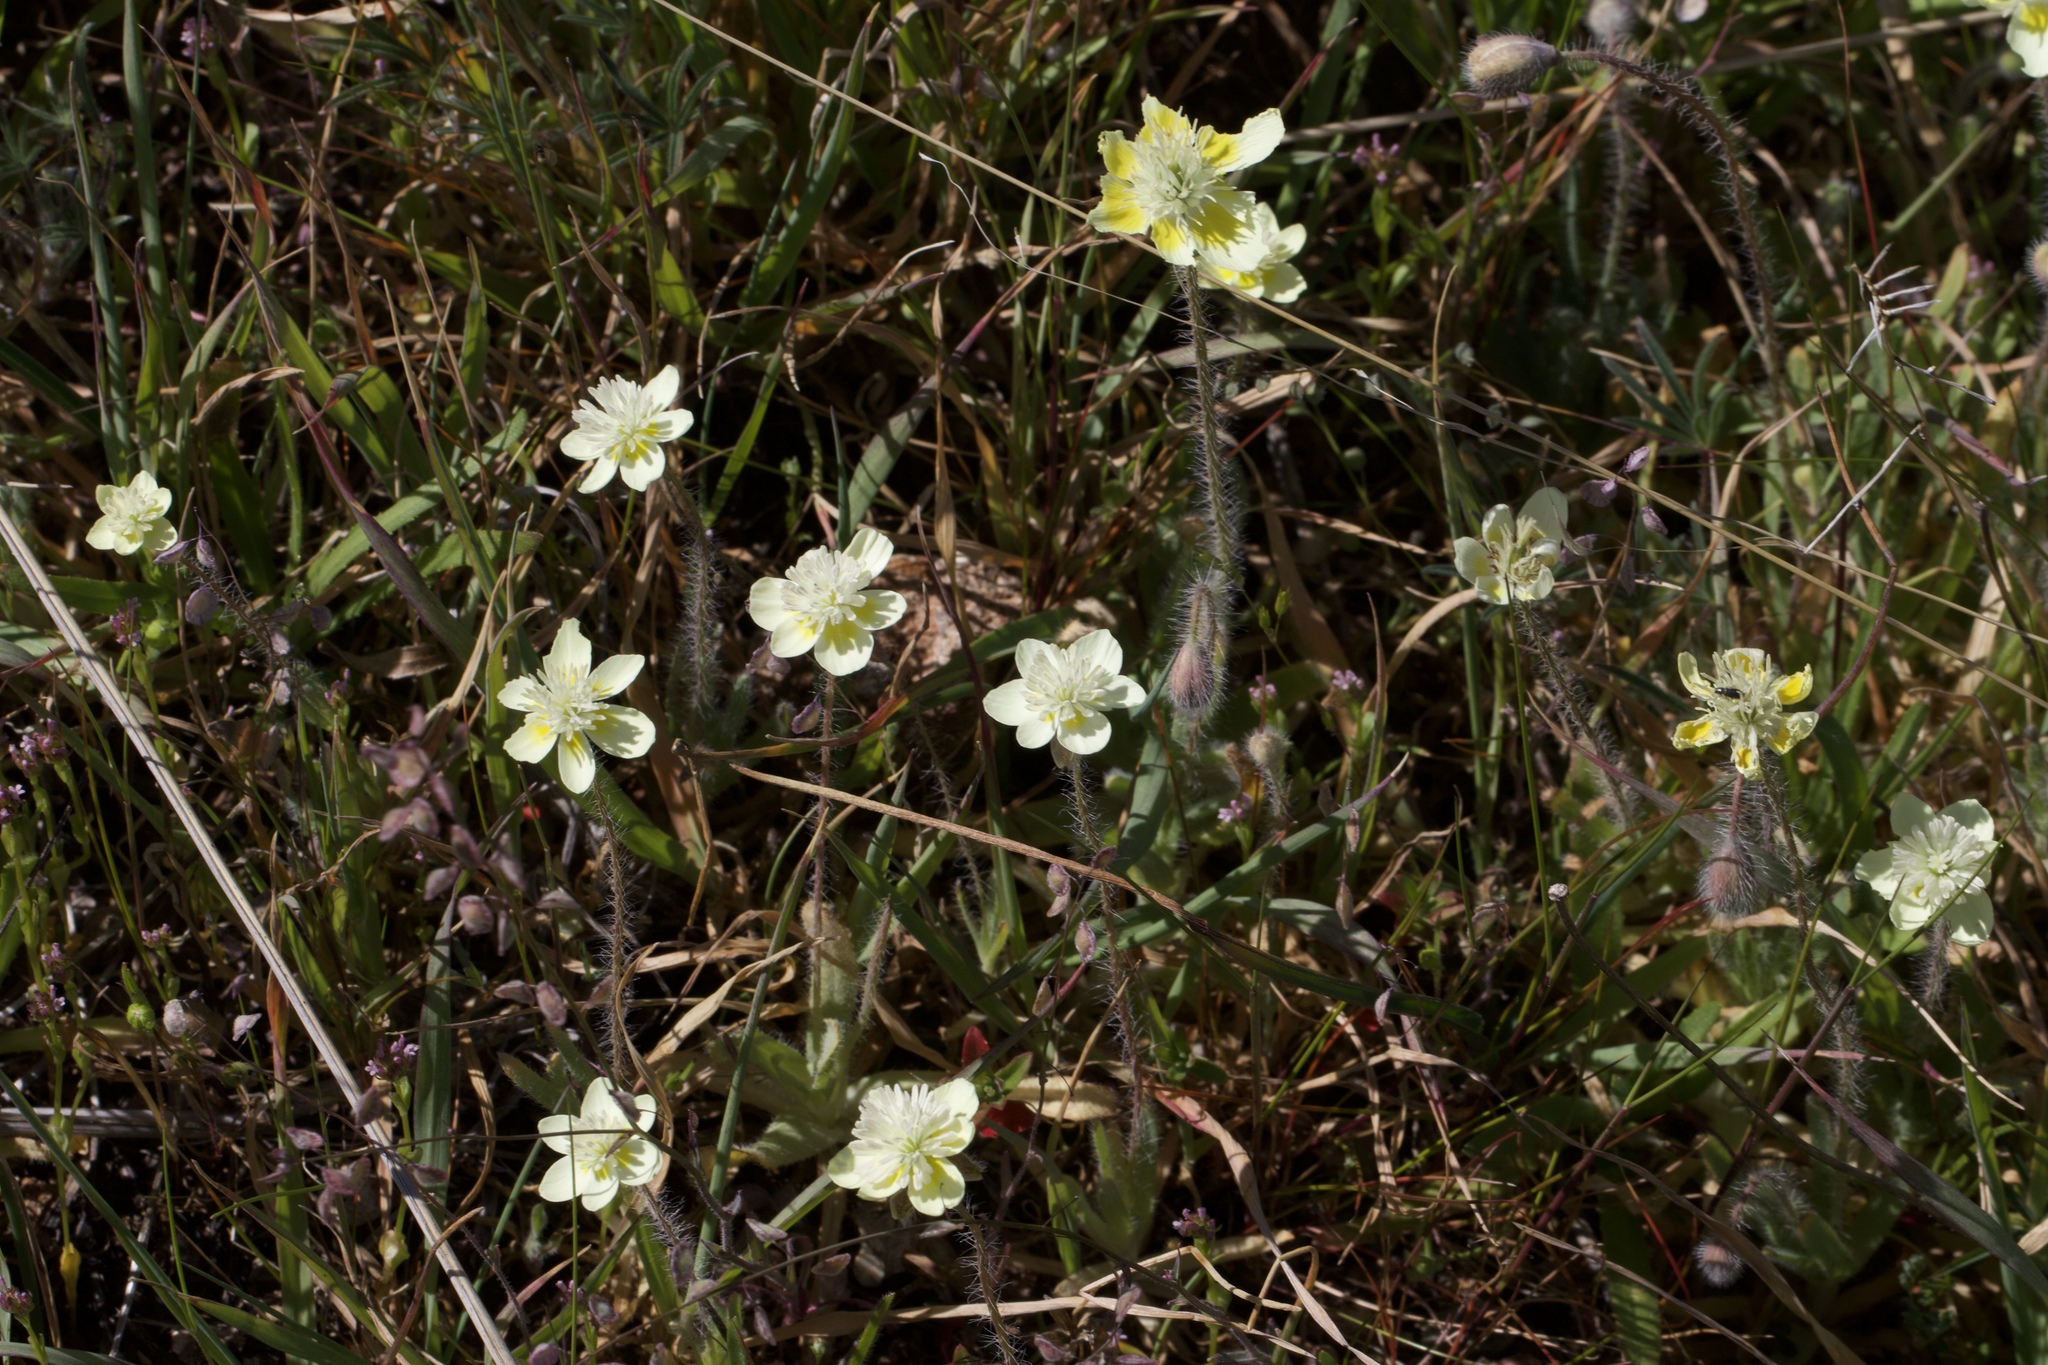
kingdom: Plantae
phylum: Tracheophyta
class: Magnoliopsida
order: Ranunculales
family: Papaveraceae
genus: Platystemon
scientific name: Platystemon californicus
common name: Cream-cups
